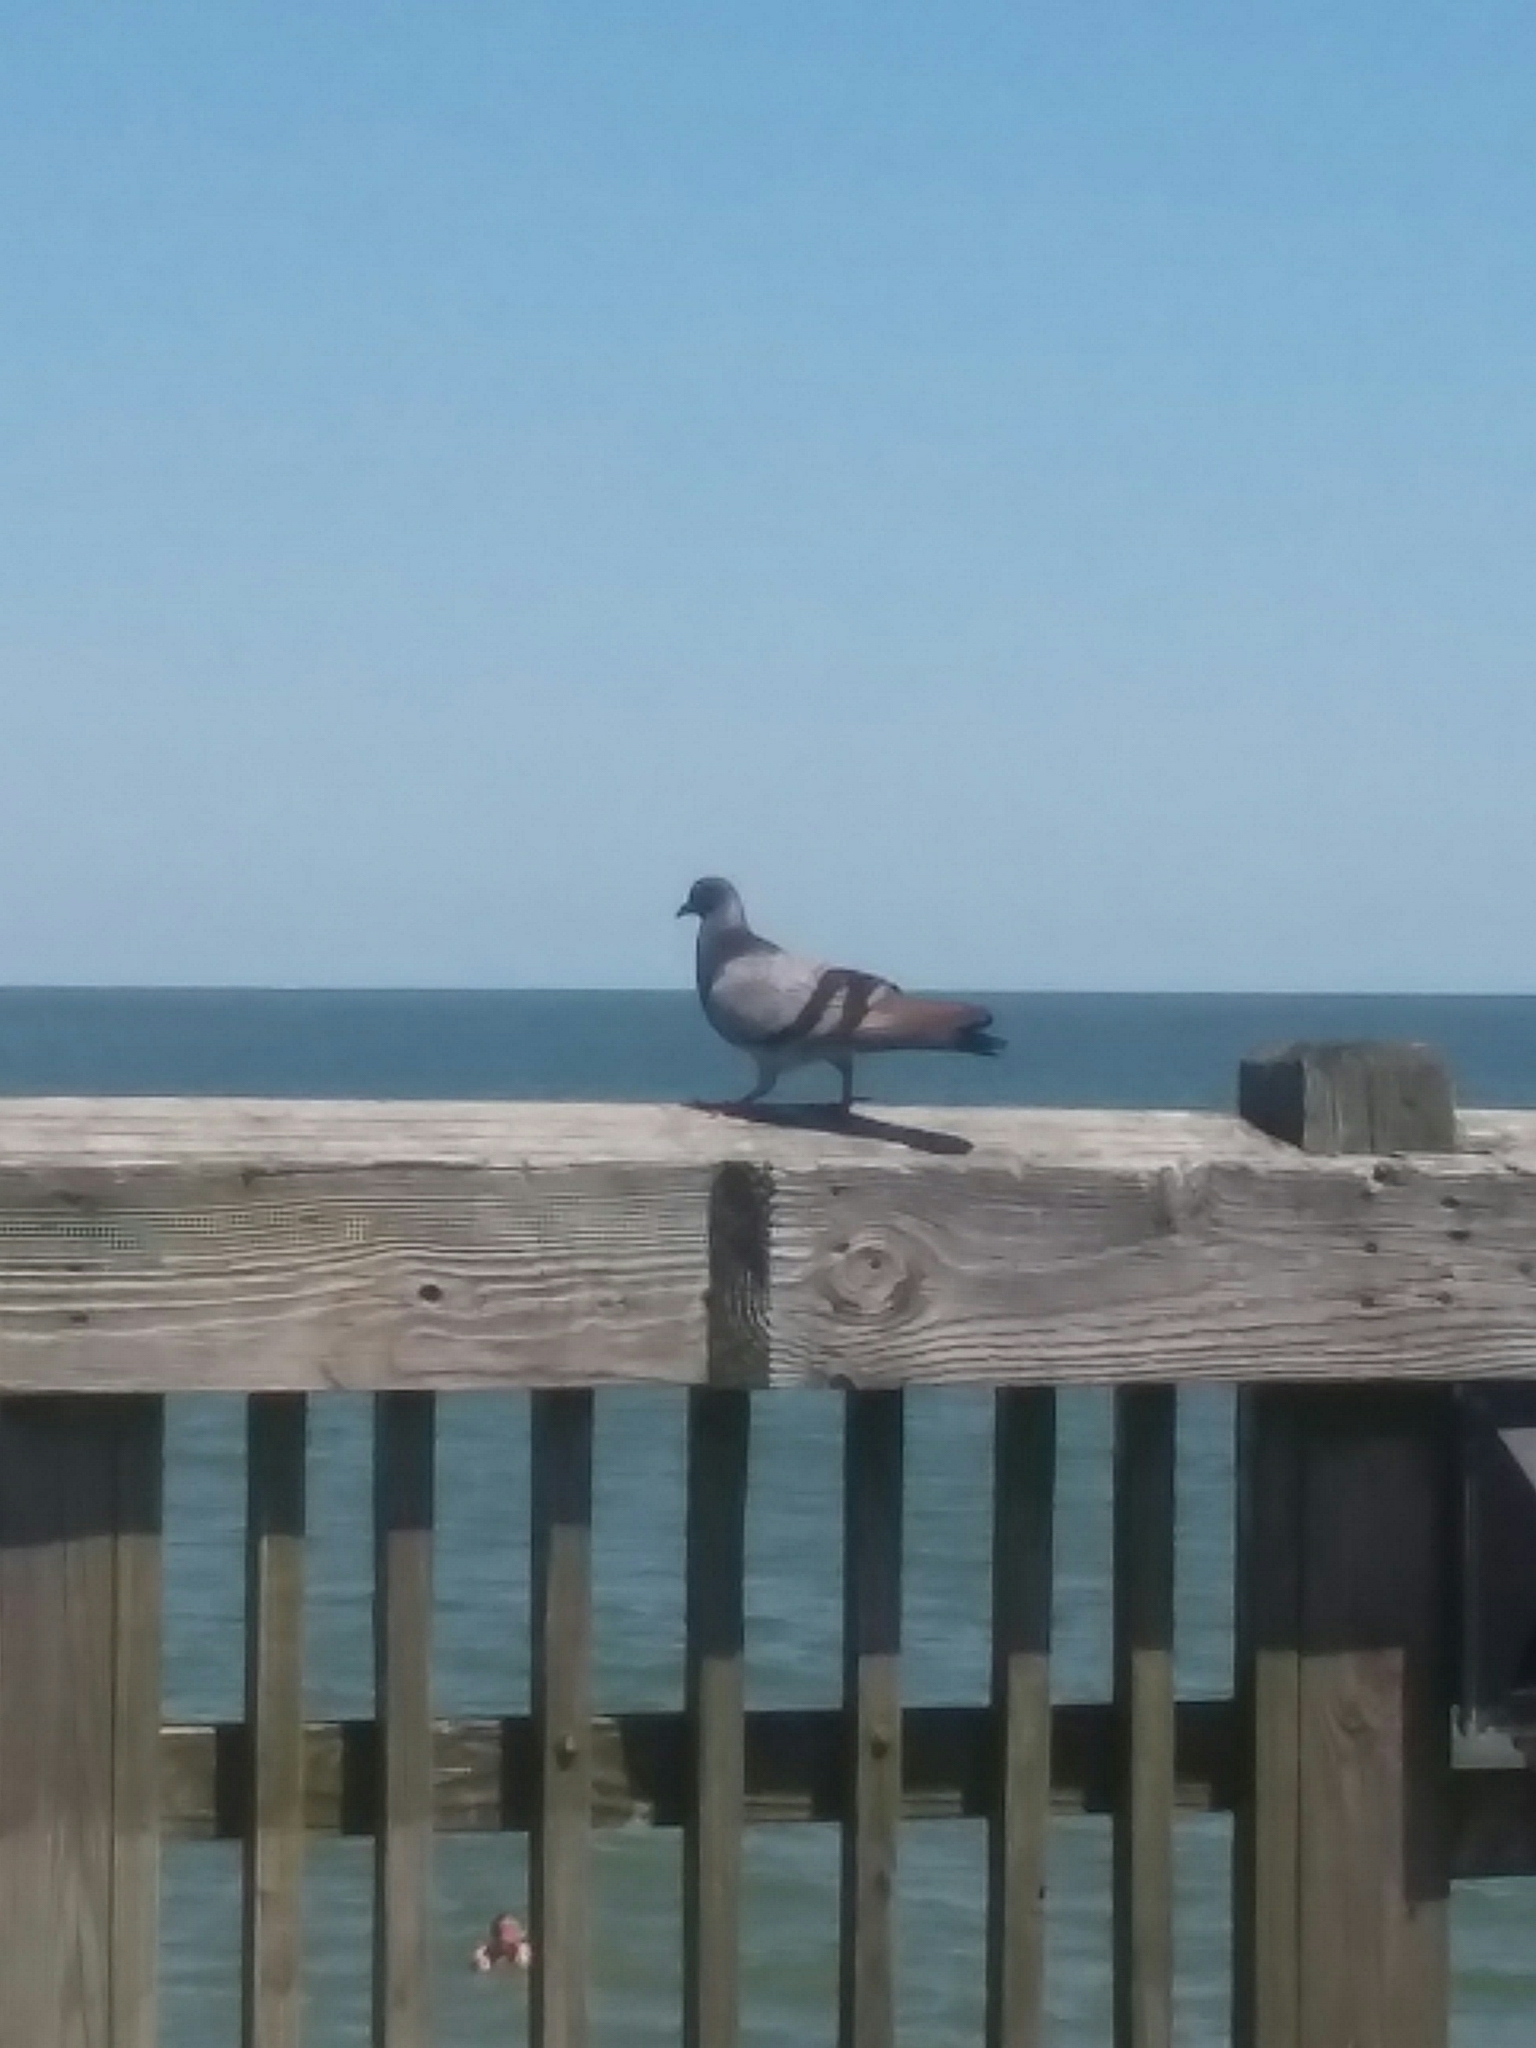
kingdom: Animalia
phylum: Chordata
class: Aves
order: Columbiformes
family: Columbidae
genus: Columba
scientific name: Columba livia
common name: Rock pigeon
